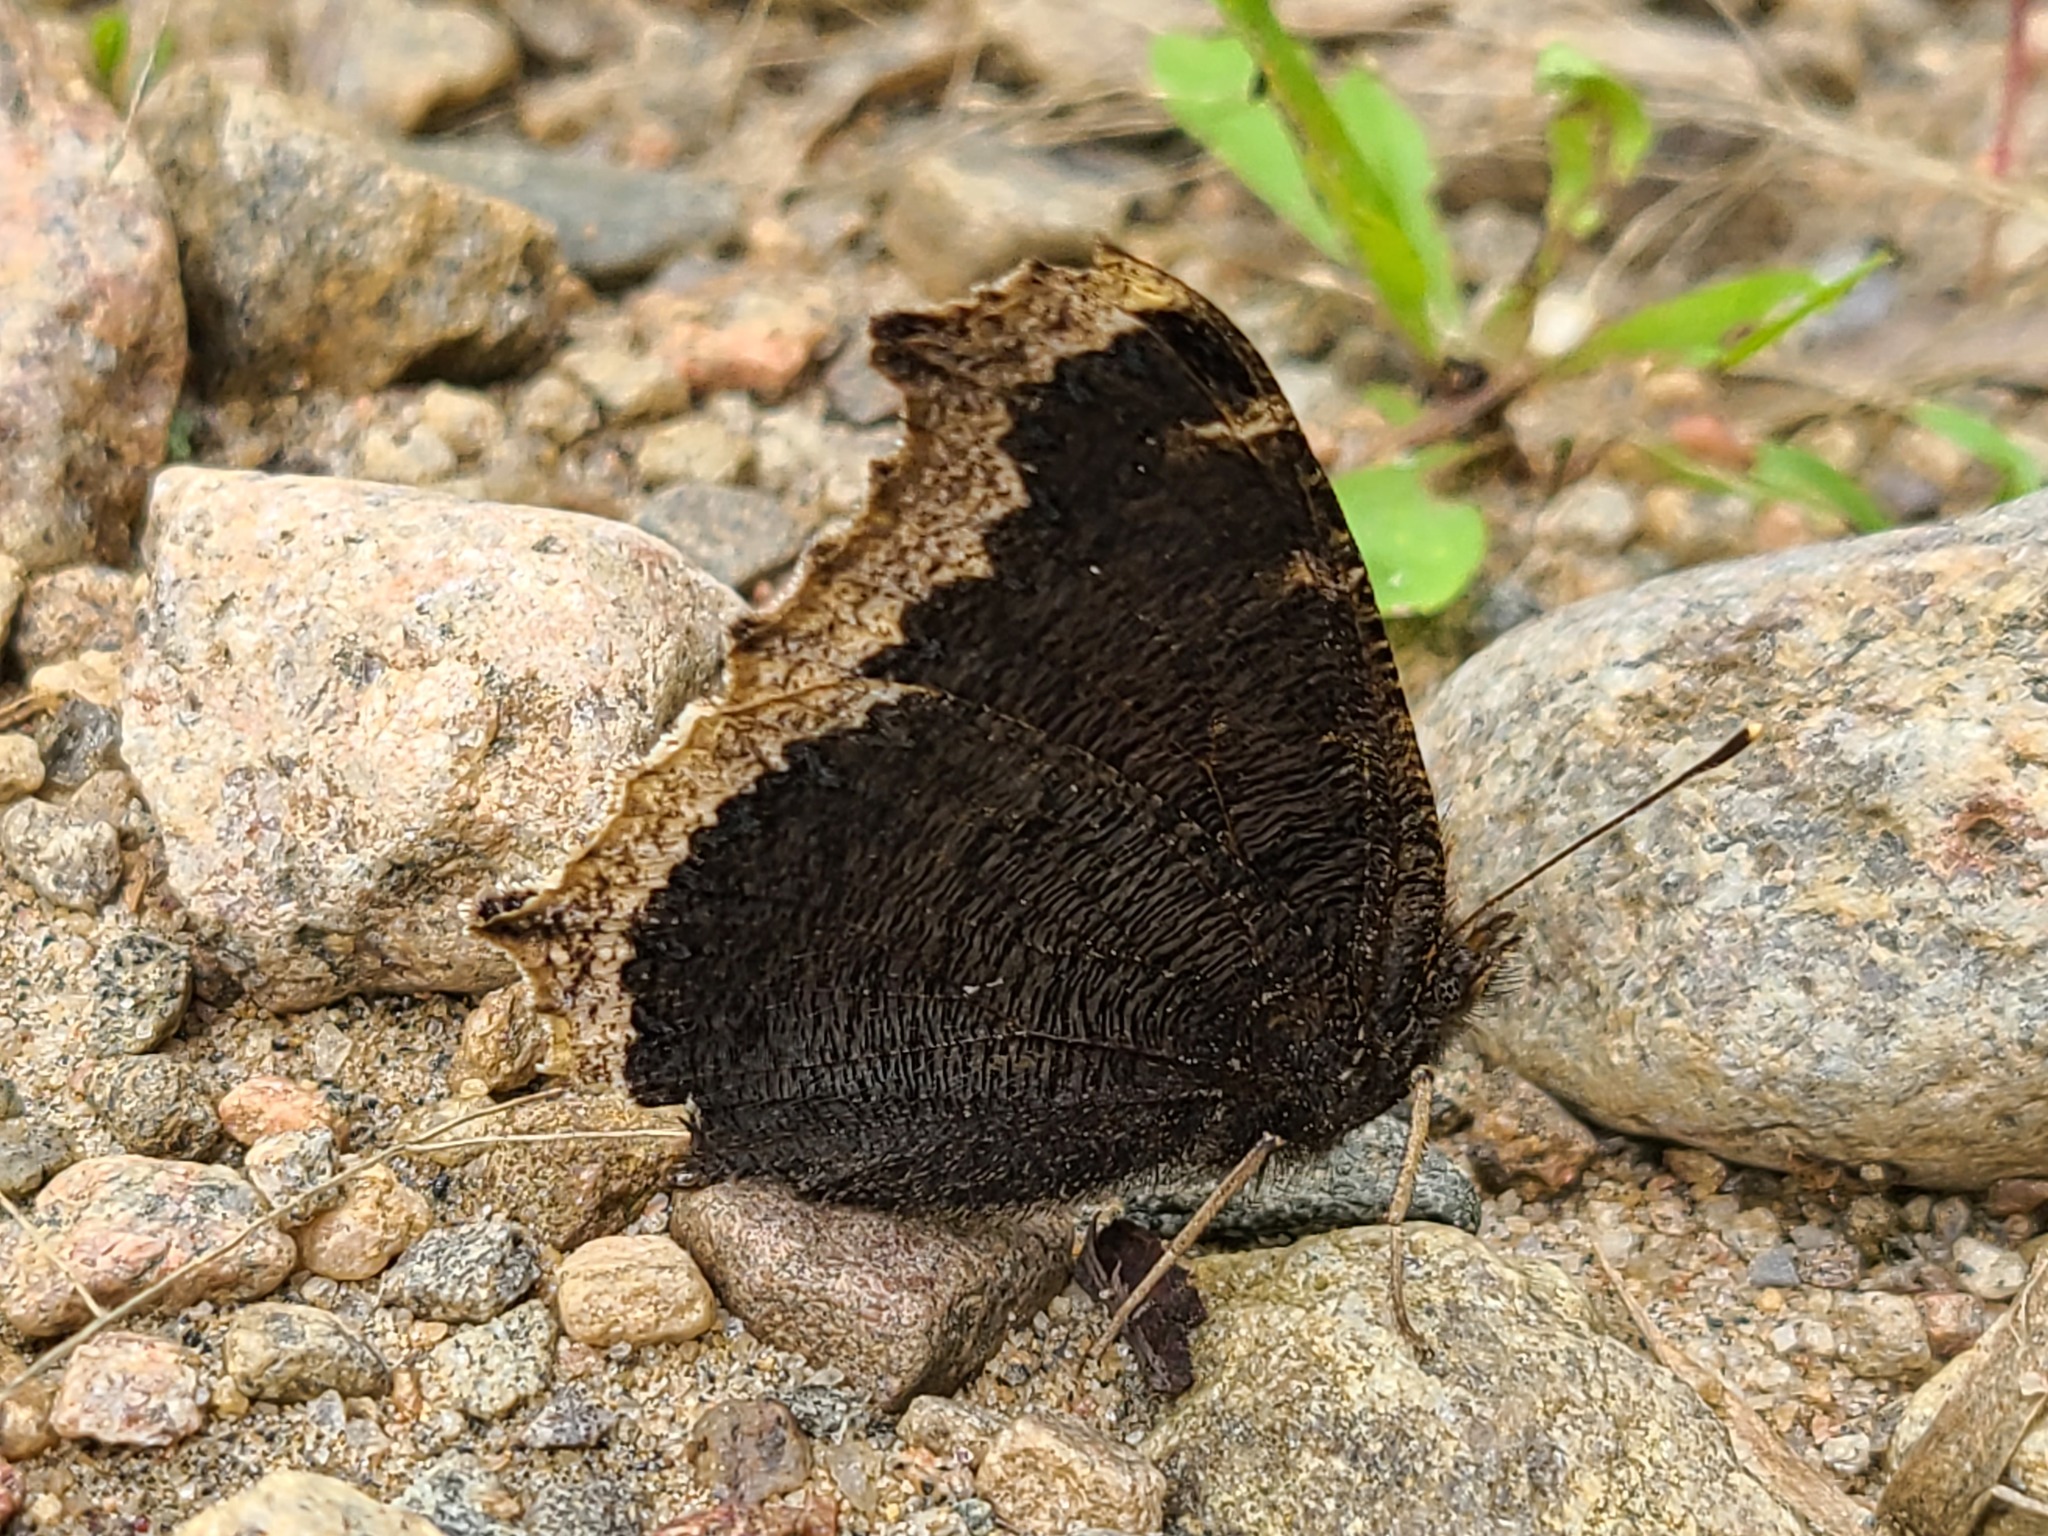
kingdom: Animalia
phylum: Arthropoda
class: Insecta
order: Lepidoptera
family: Nymphalidae
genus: Nymphalis
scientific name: Nymphalis antiopa
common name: Camberwell beauty
